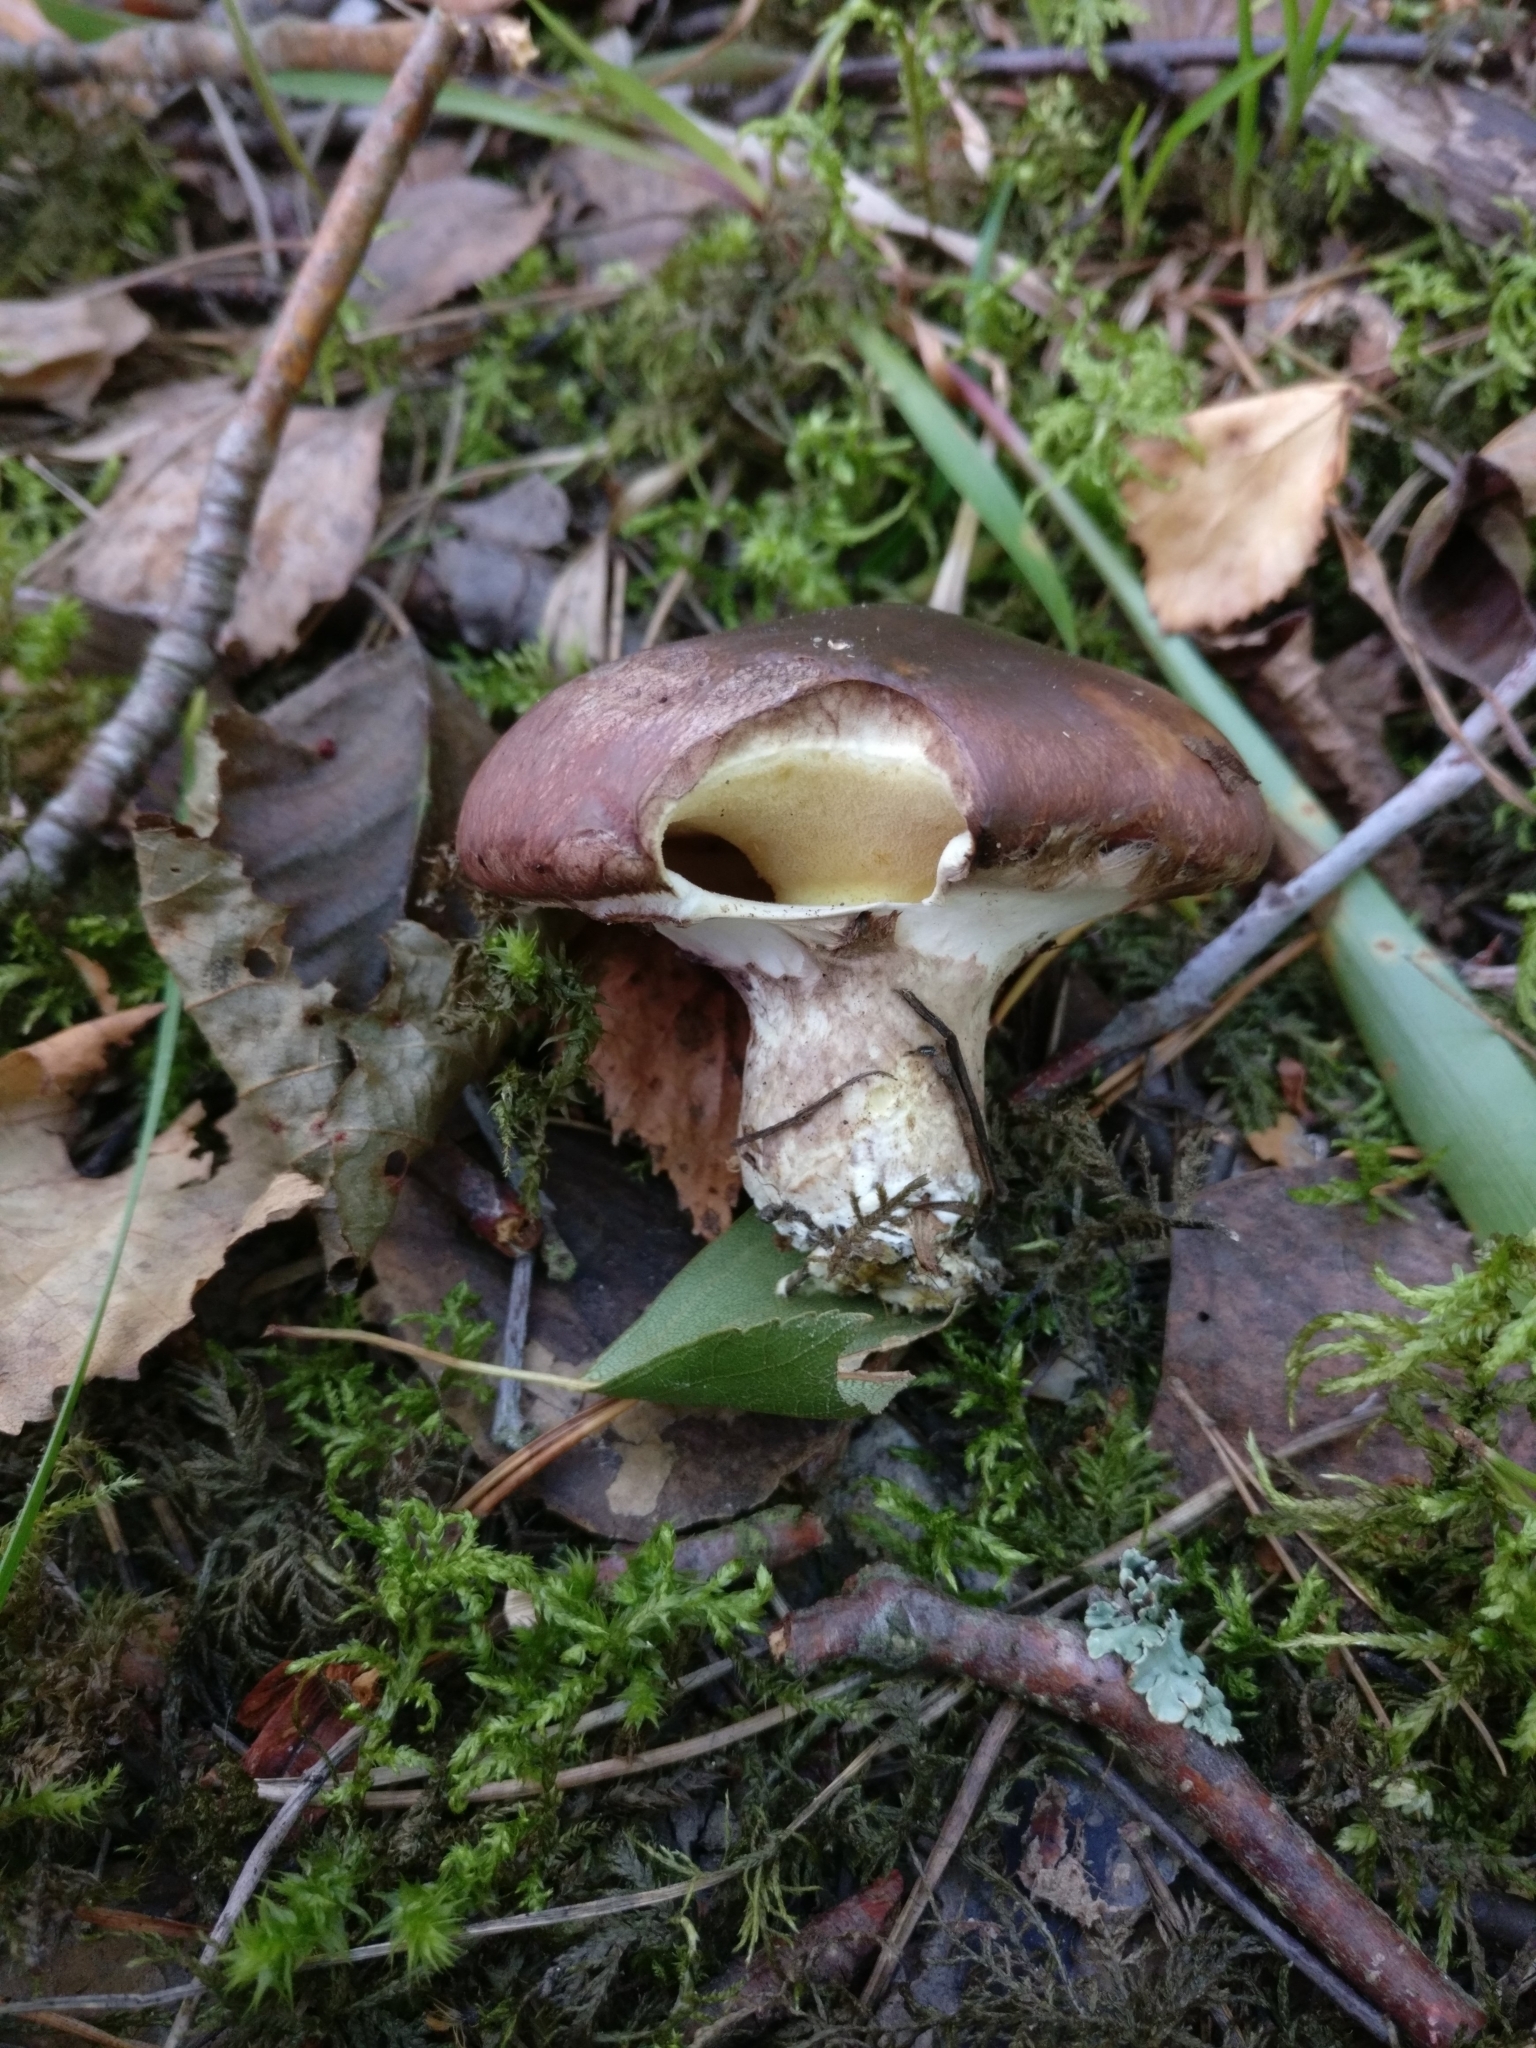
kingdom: Fungi
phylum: Basidiomycota
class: Agaricomycetes
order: Boletales
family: Suillaceae
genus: Suillus
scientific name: Suillus luteus
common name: Slippery jack
